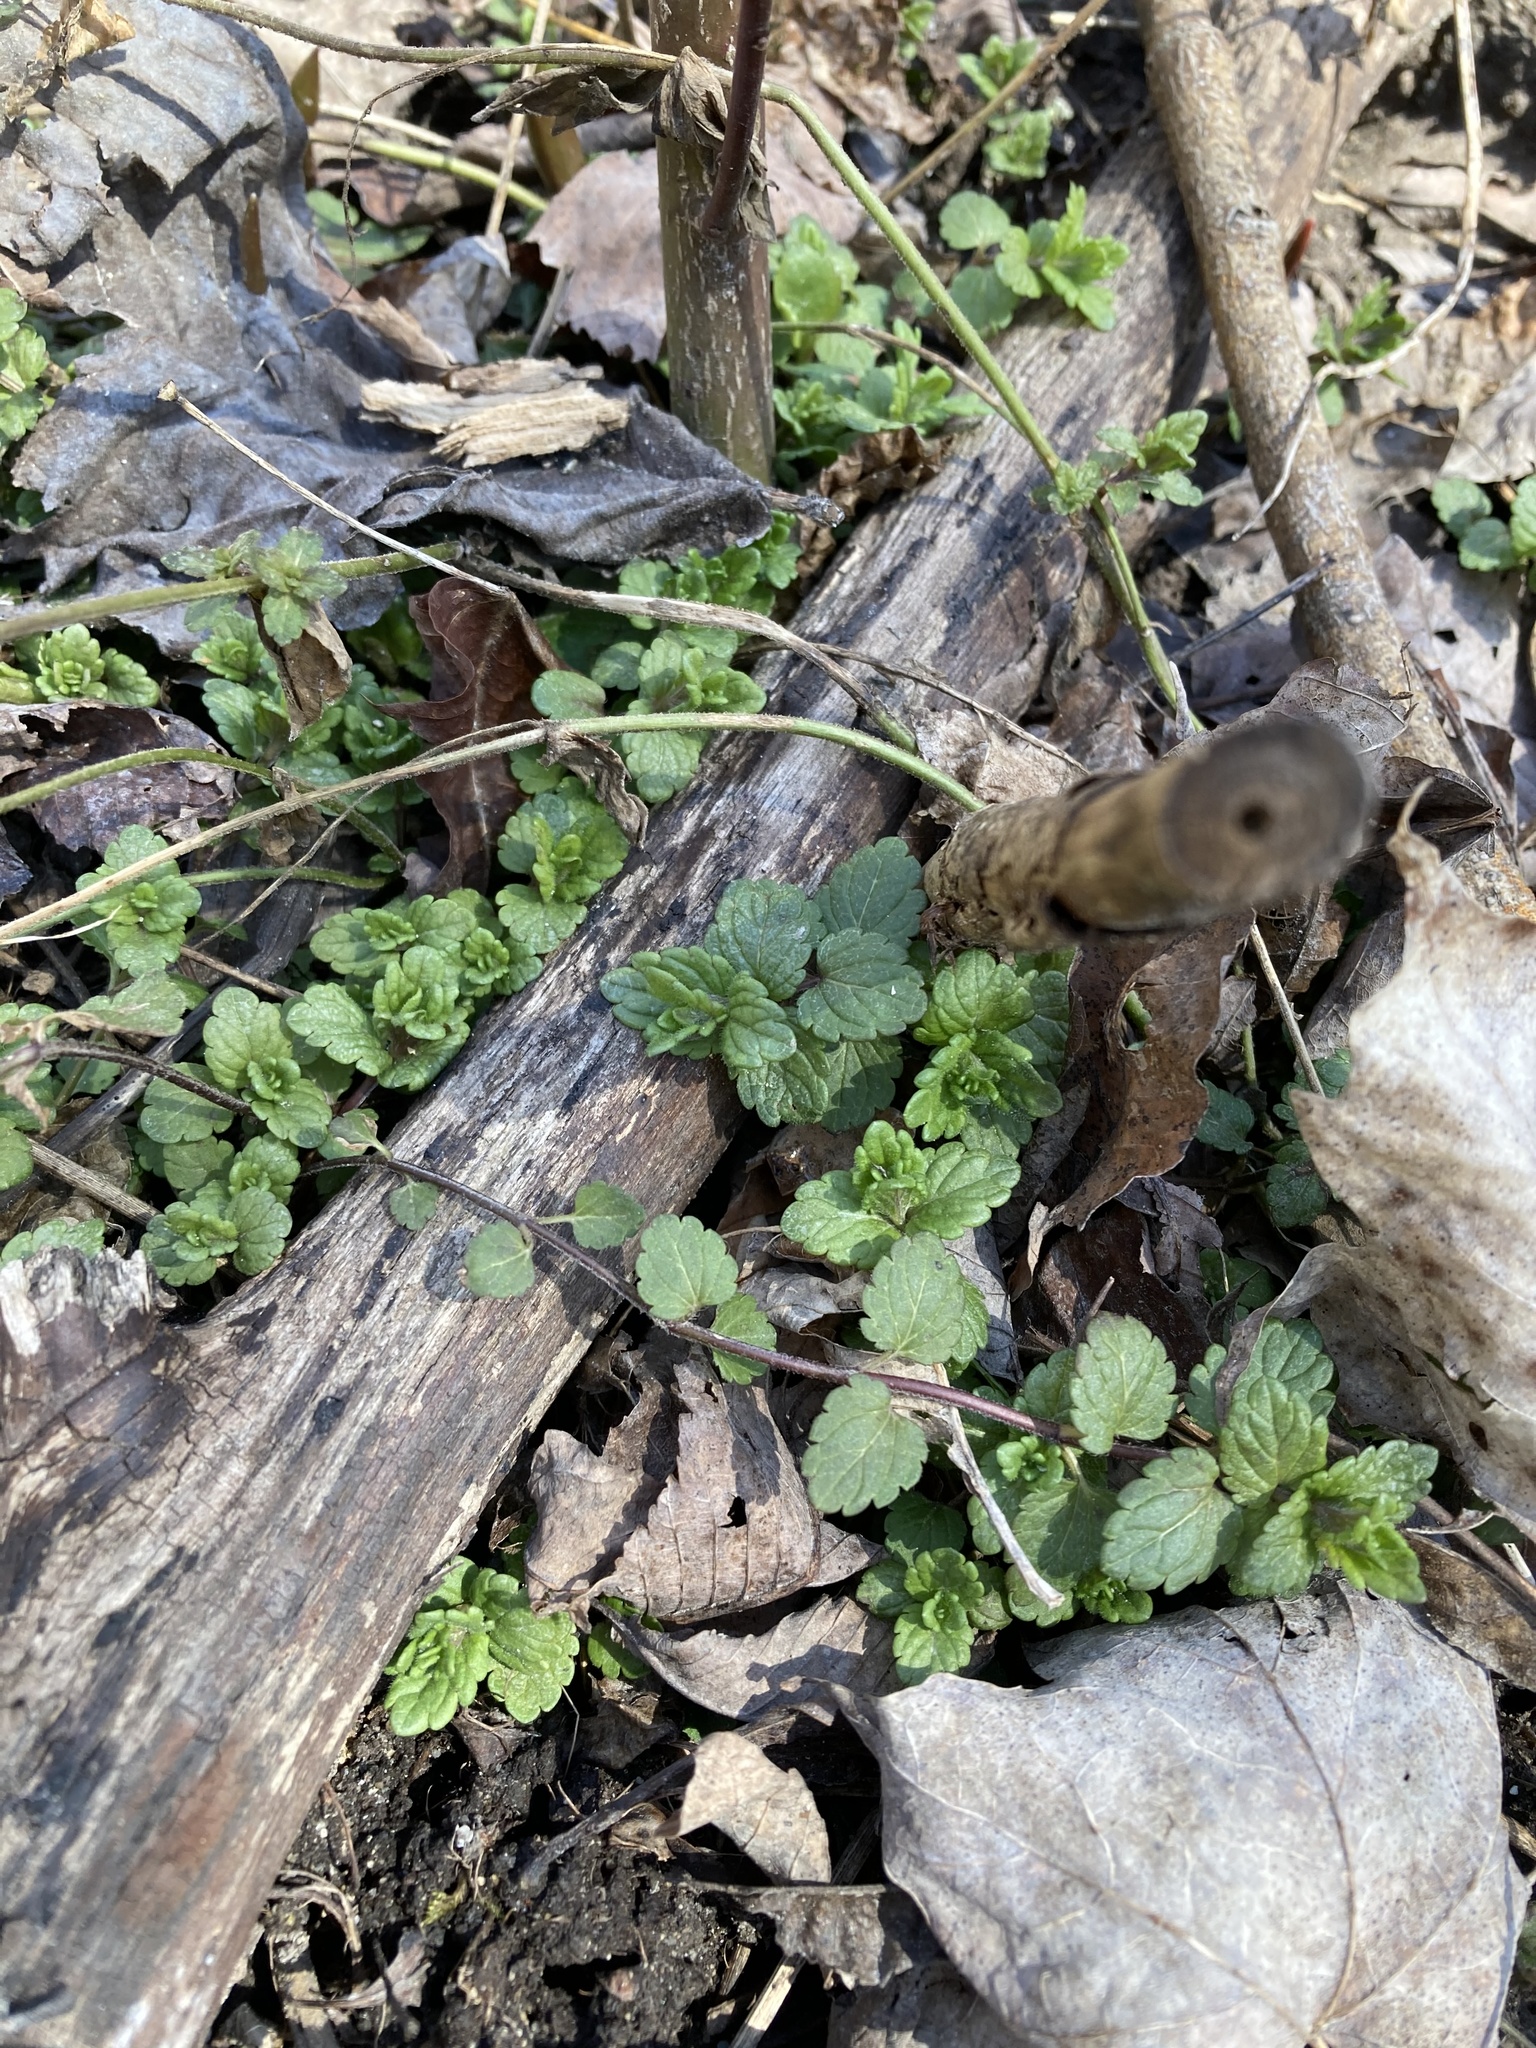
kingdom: Plantae
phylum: Tracheophyta
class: Magnoliopsida
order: Lamiales
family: Plantaginaceae
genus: Veronica
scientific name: Veronica chamaedrys
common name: Germander speedwell
